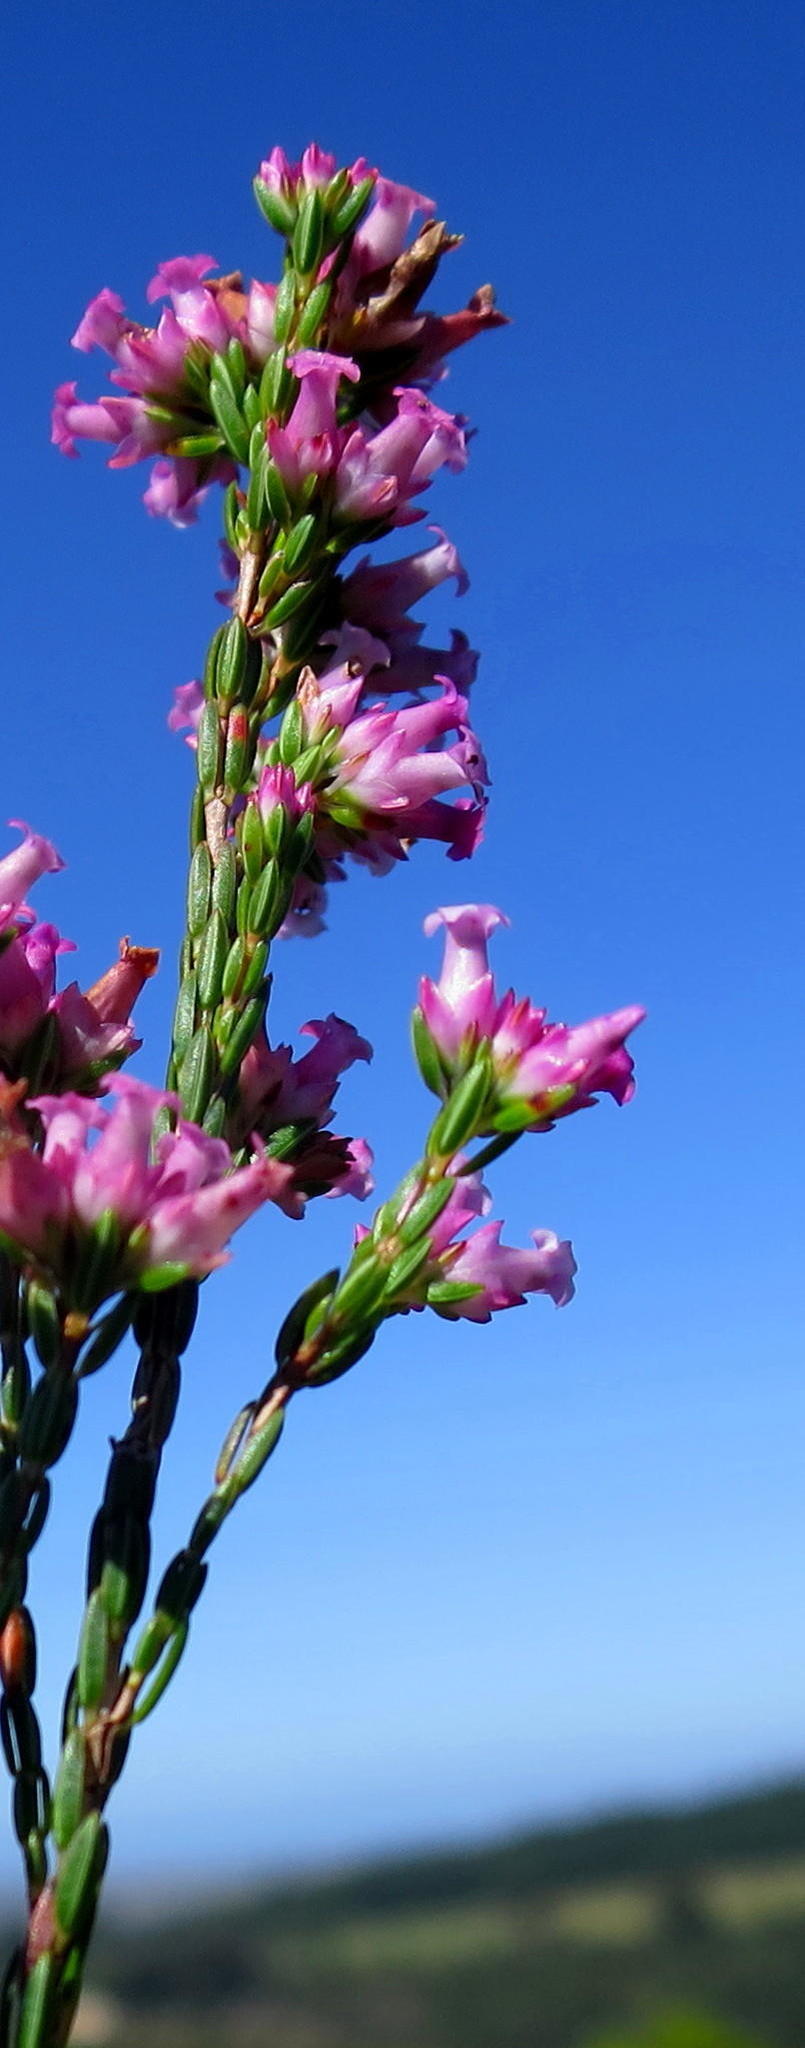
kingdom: Plantae
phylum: Tracheophyta
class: Magnoliopsida
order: Ericales
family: Ericaceae
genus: Erica
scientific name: Erica steinbergiana
